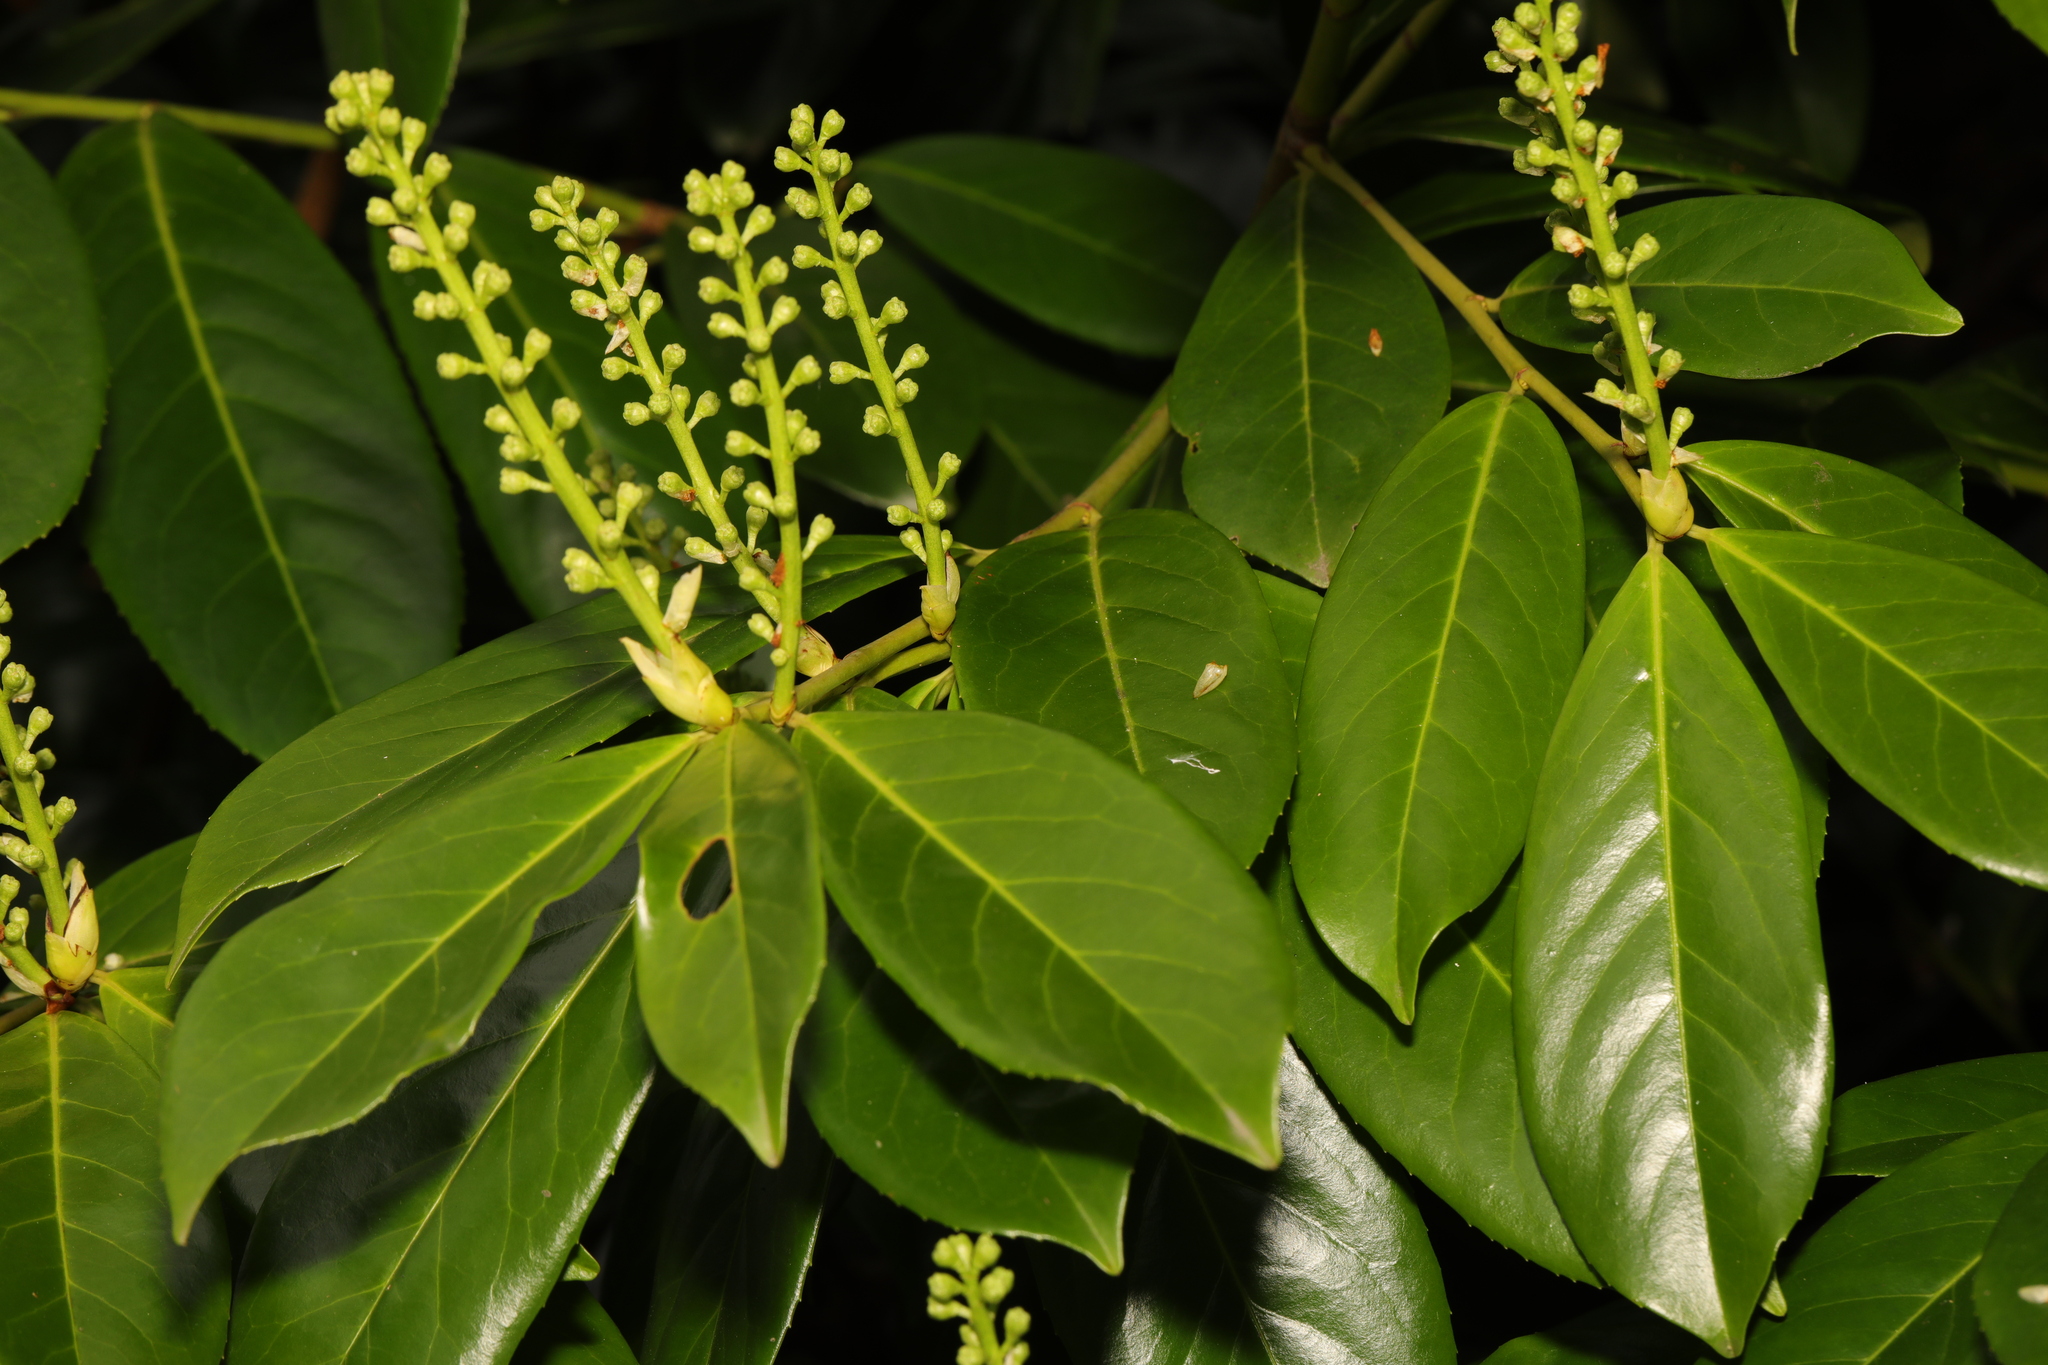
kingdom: Plantae
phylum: Tracheophyta
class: Magnoliopsida
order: Rosales
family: Rosaceae
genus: Prunus
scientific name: Prunus laurocerasus
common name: Cherry laurel
